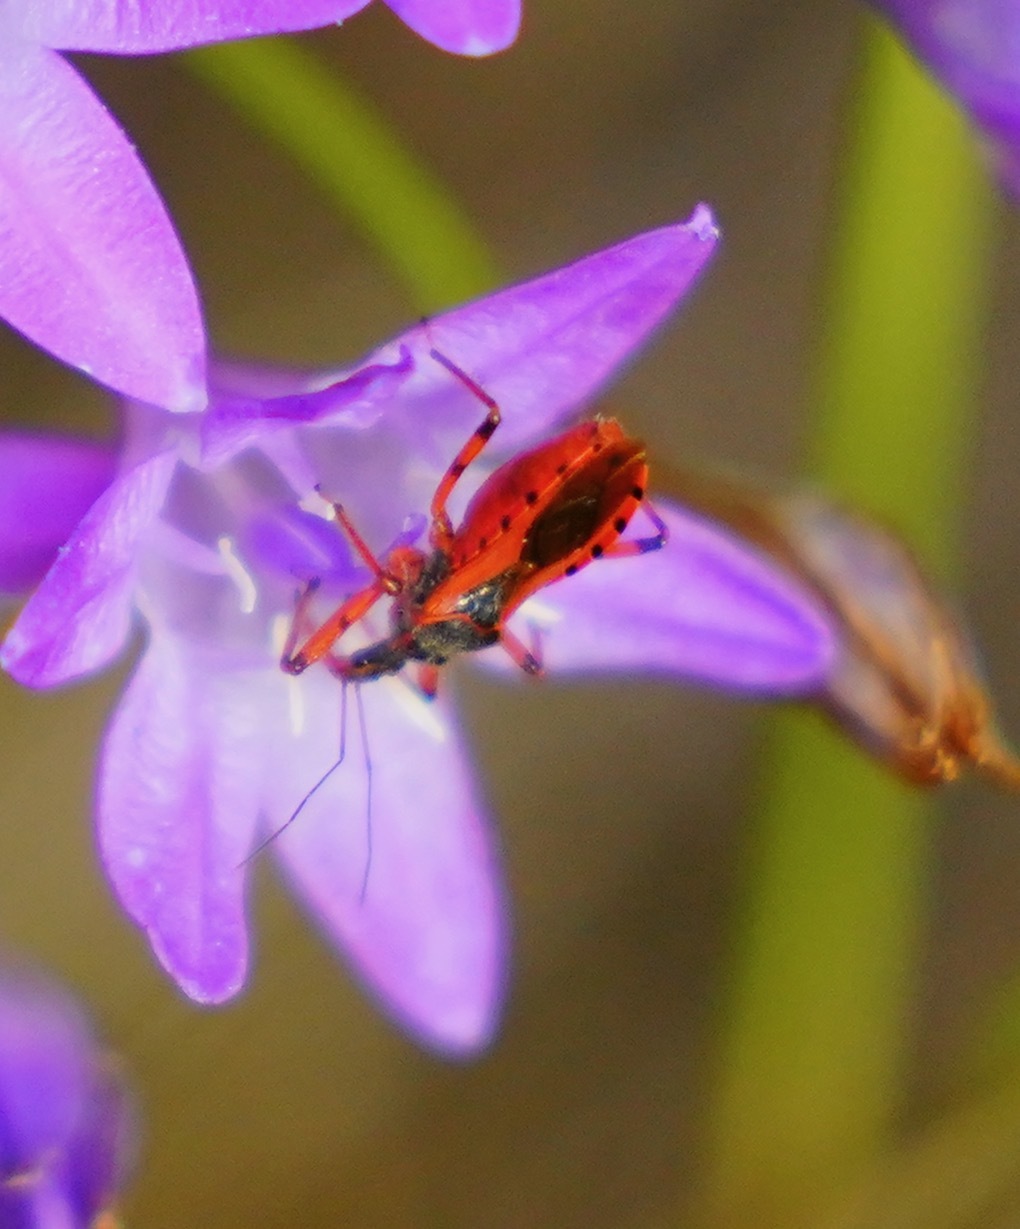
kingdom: Animalia
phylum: Arthropoda
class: Insecta
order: Hemiptera
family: Reduviidae
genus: Rhynocoris
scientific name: Rhynocoris ventralis
